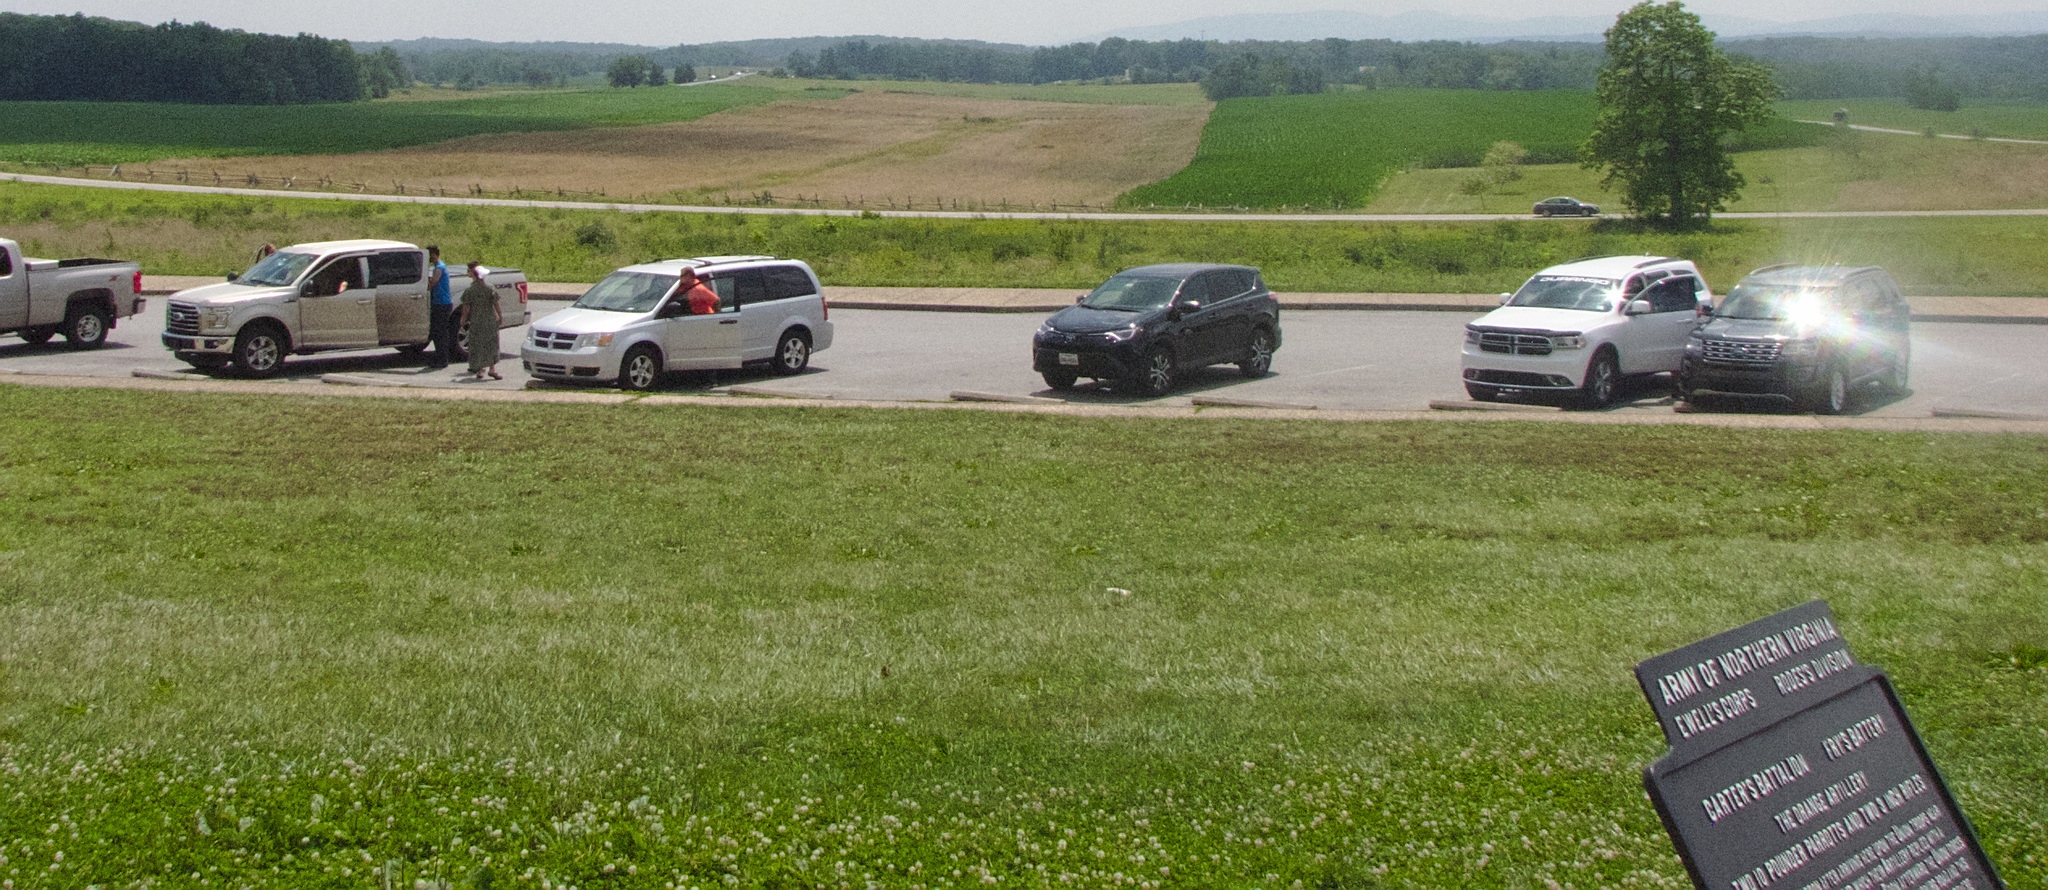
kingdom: Plantae
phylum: Tracheophyta
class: Magnoliopsida
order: Fabales
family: Fabaceae
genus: Trifolium
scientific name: Trifolium repens
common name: White clover
